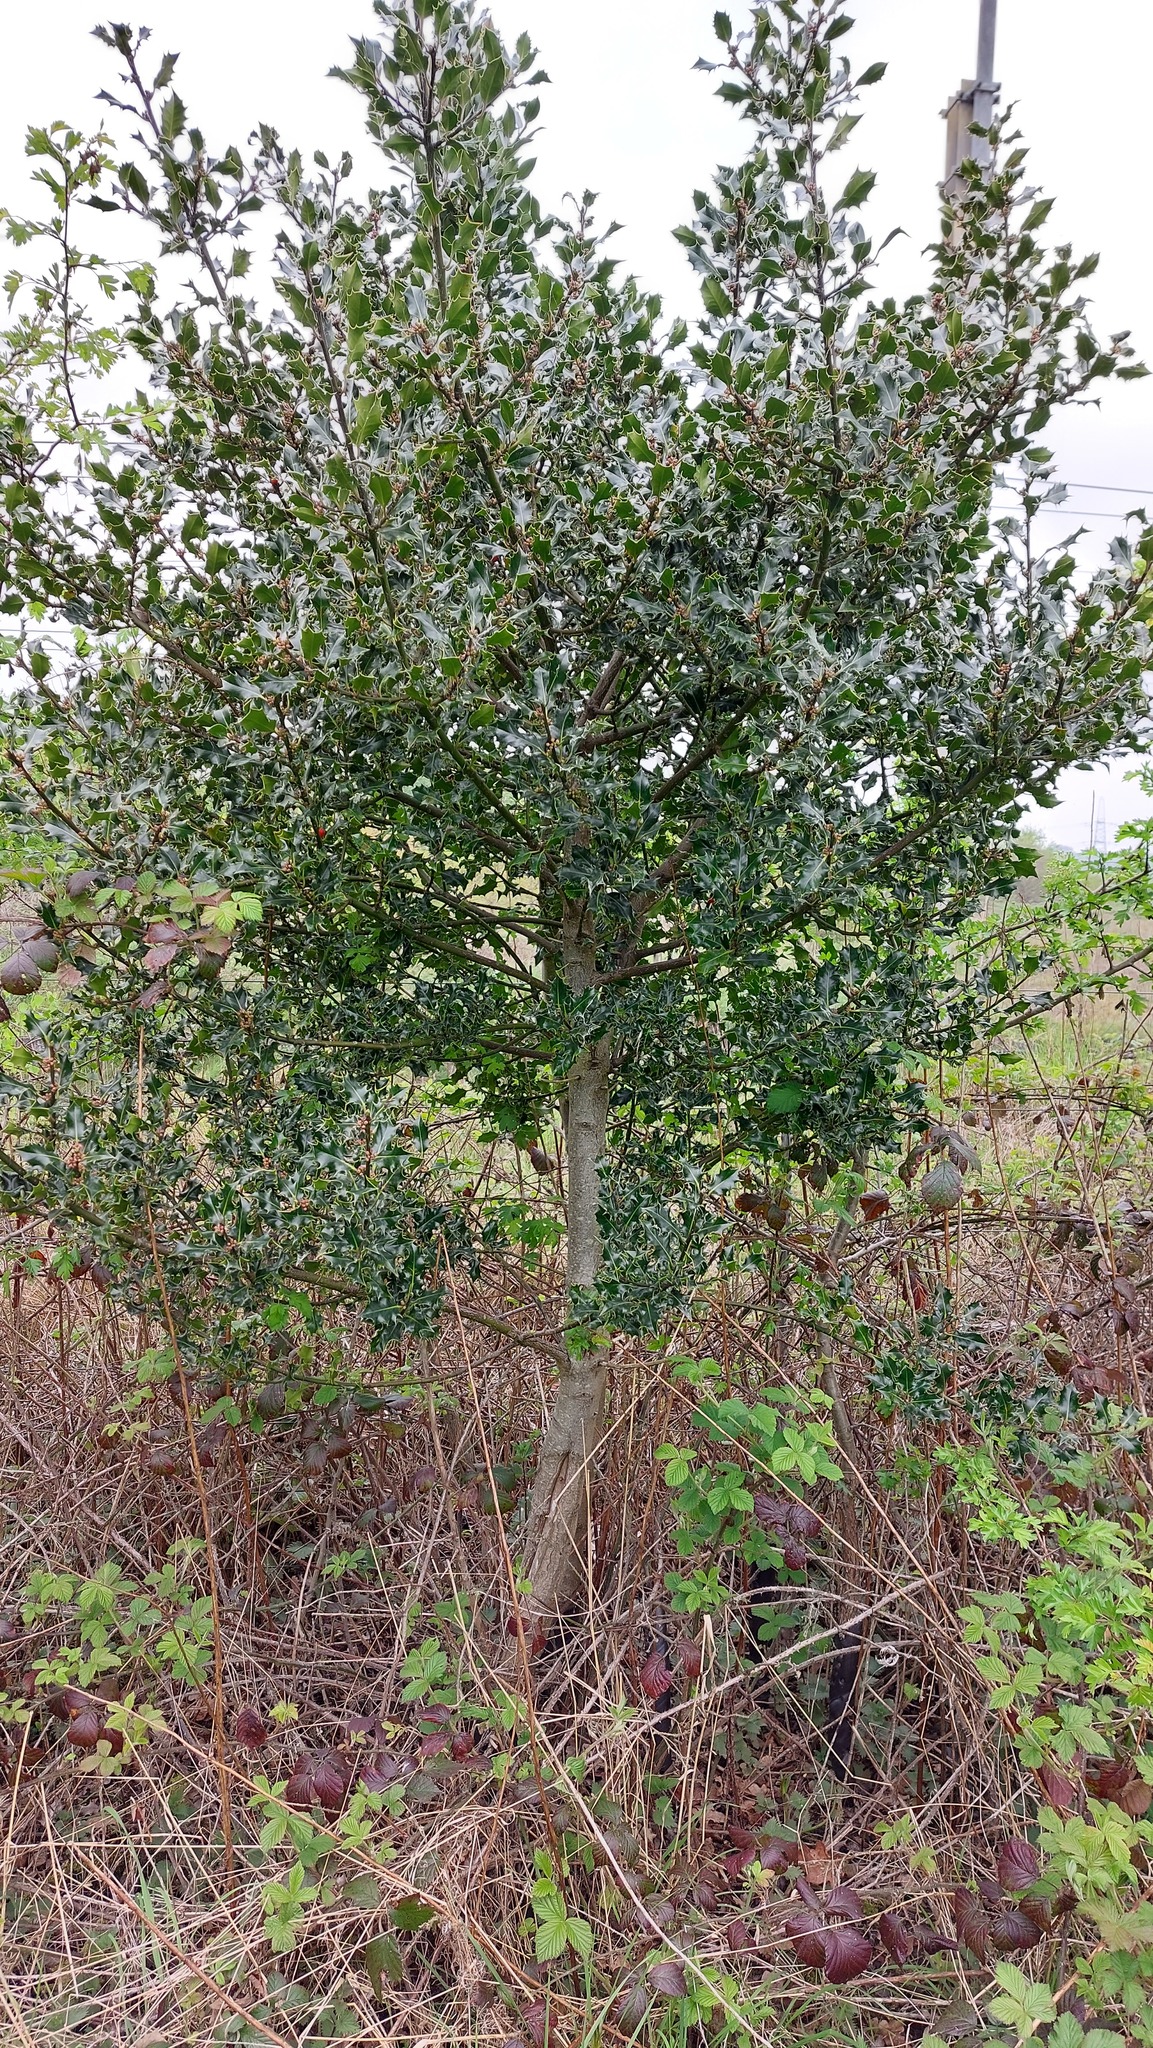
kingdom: Plantae
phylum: Tracheophyta
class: Magnoliopsida
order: Aquifoliales
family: Aquifoliaceae
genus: Ilex
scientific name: Ilex aquifolium
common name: English holly
